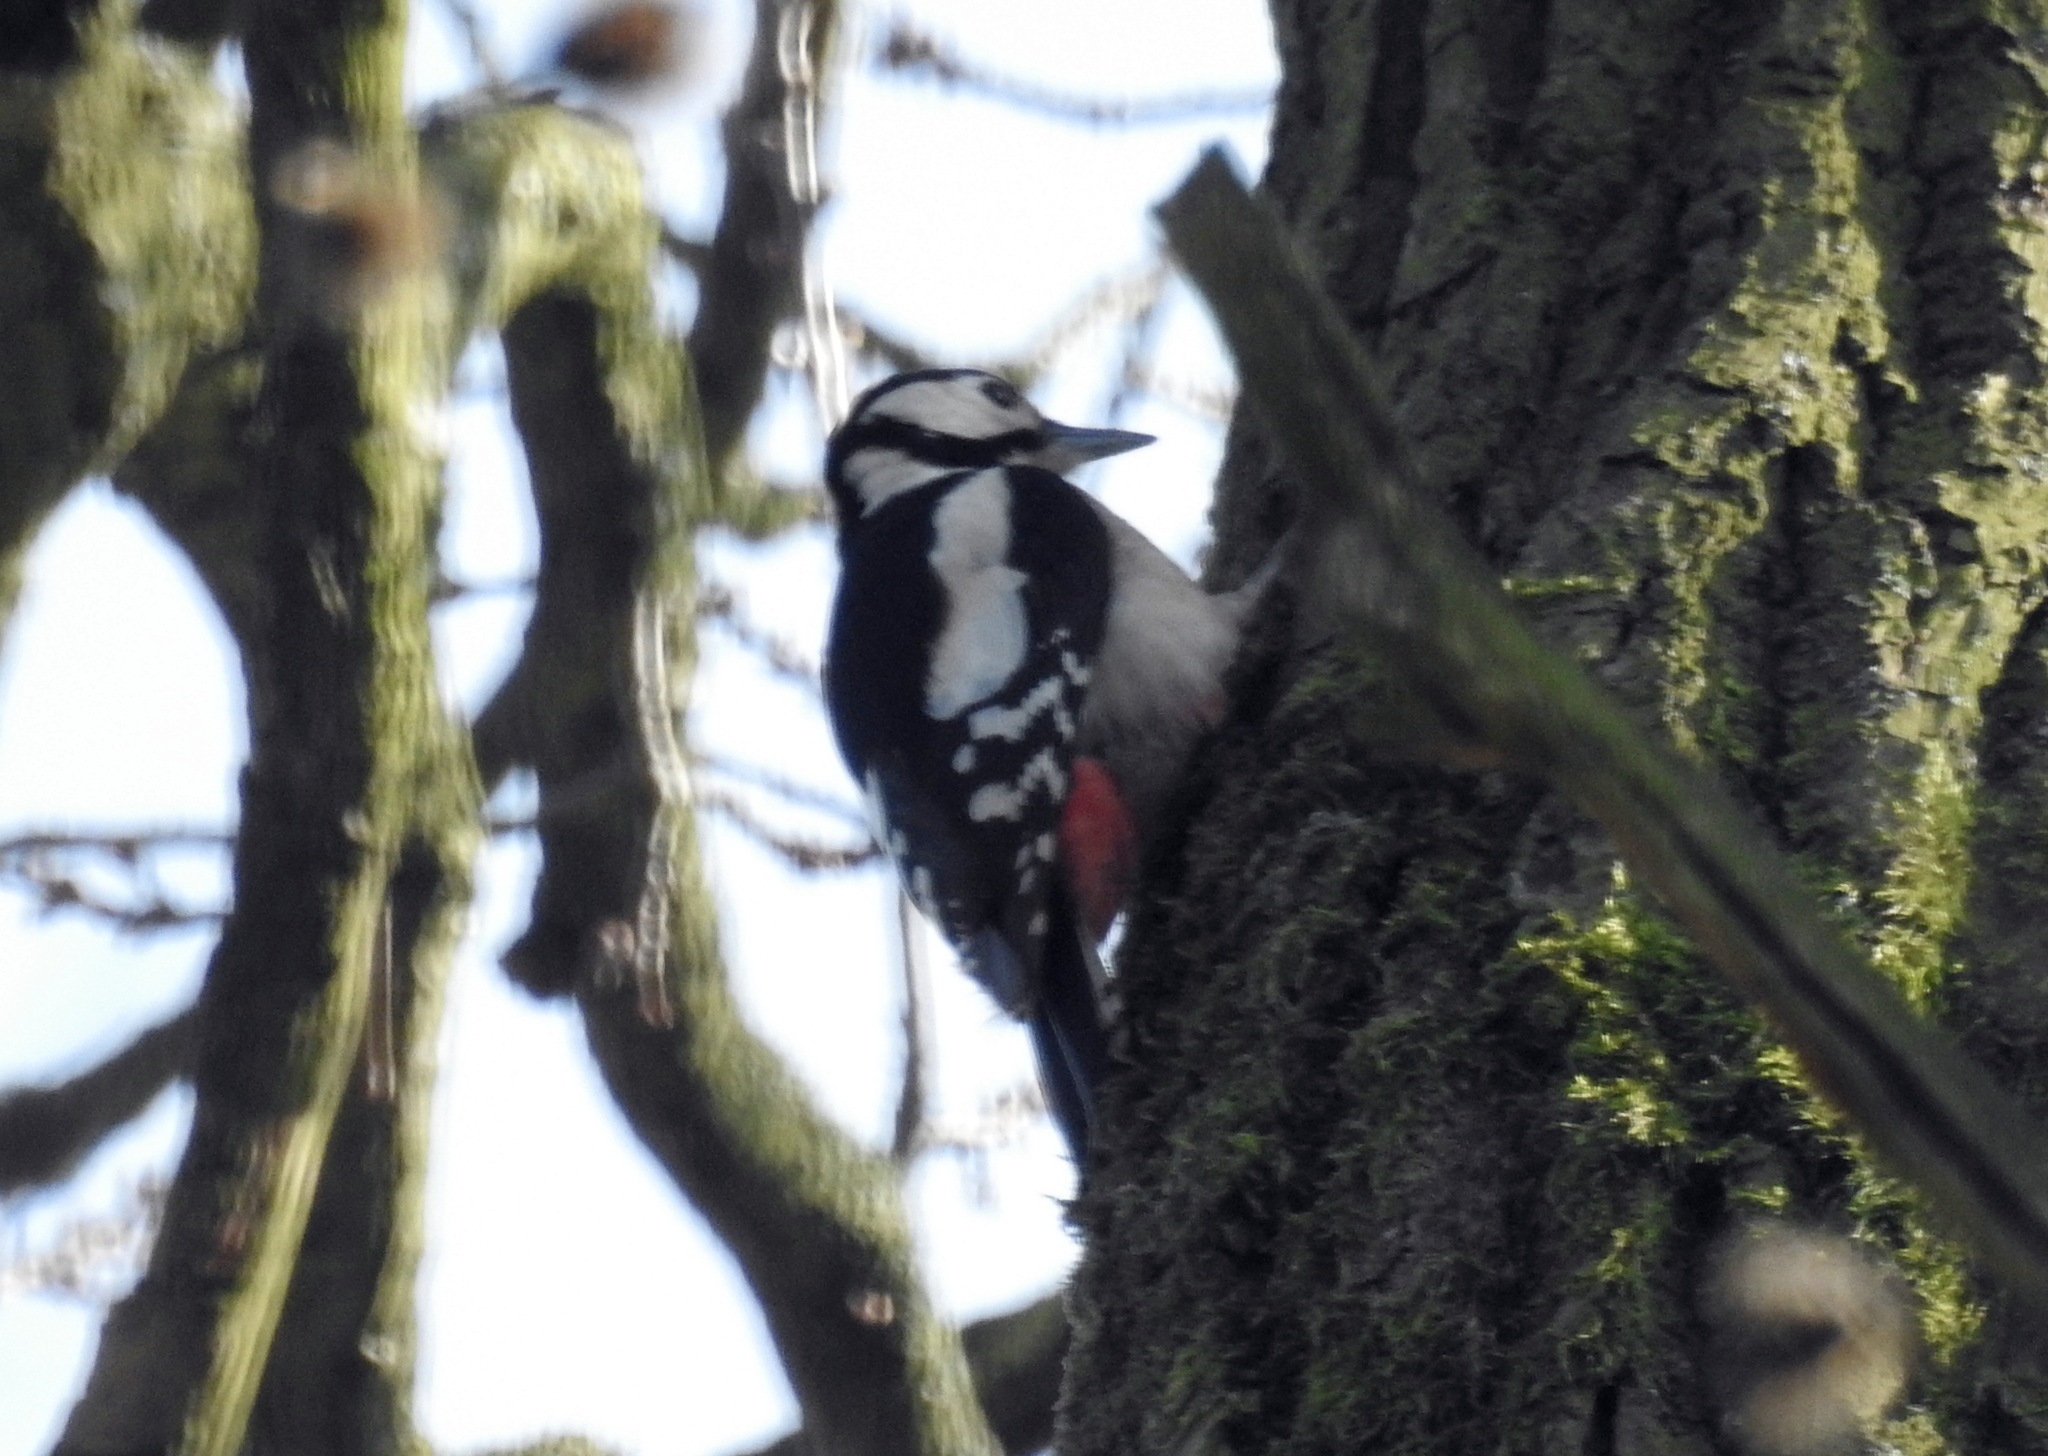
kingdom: Animalia
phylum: Chordata
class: Aves
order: Piciformes
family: Picidae
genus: Dendrocopos
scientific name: Dendrocopos major
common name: Great spotted woodpecker
